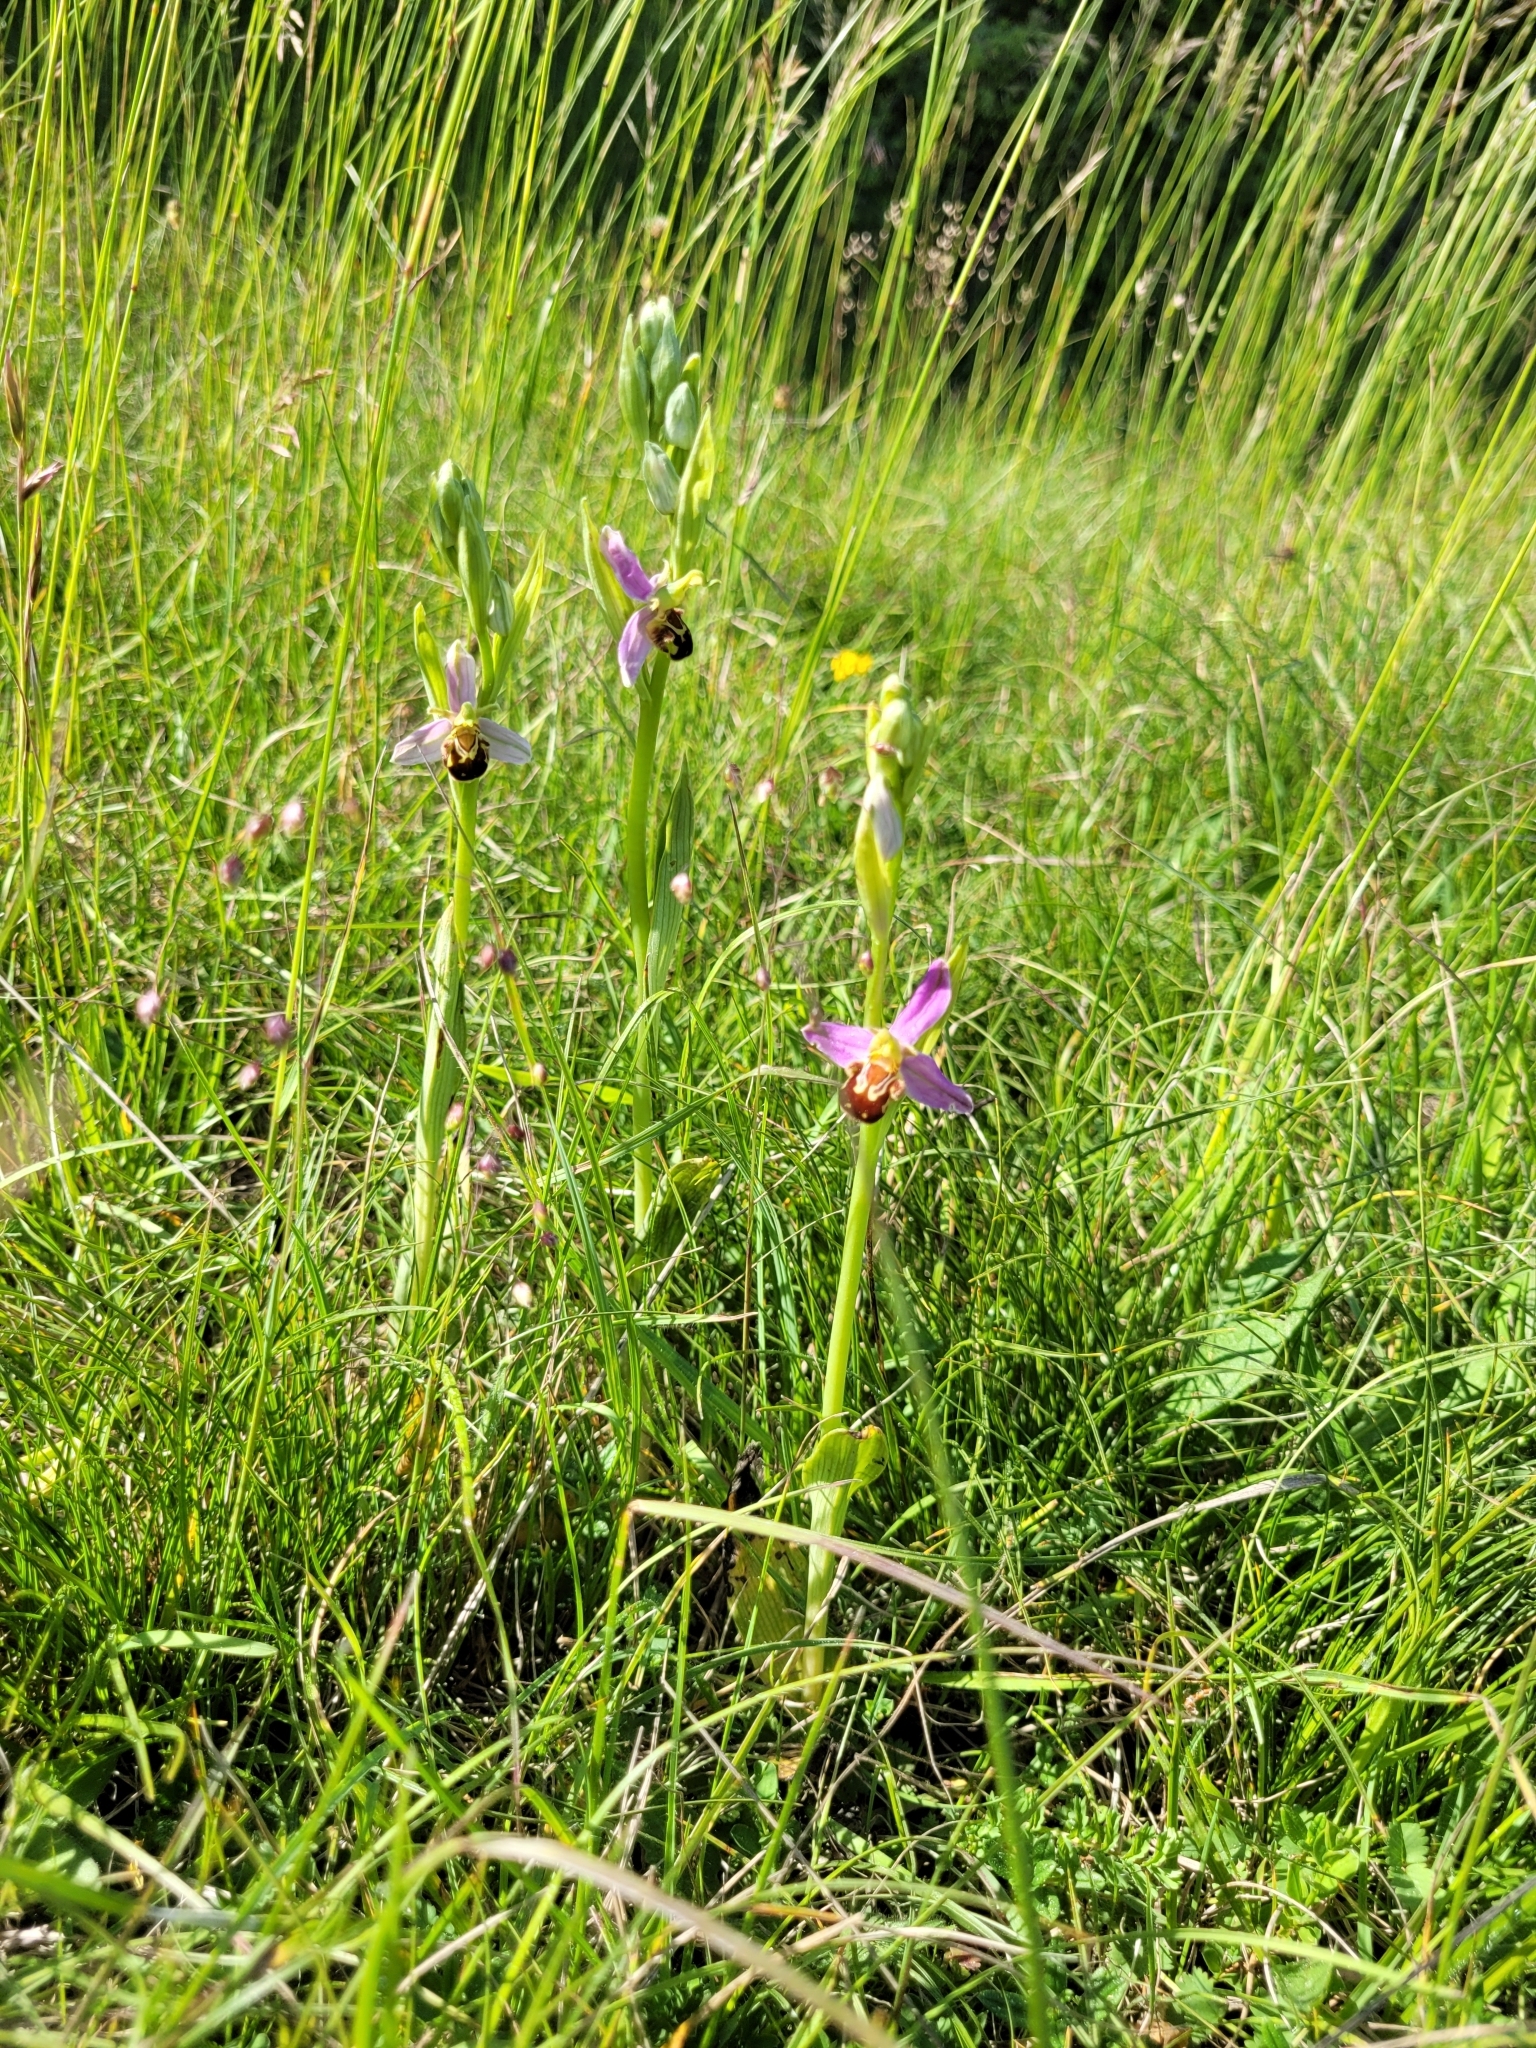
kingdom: Plantae
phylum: Tracheophyta
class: Liliopsida
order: Asparagales
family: Orchidaceae
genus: Ophrys
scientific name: Ophrys apifera
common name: Bee orchid
